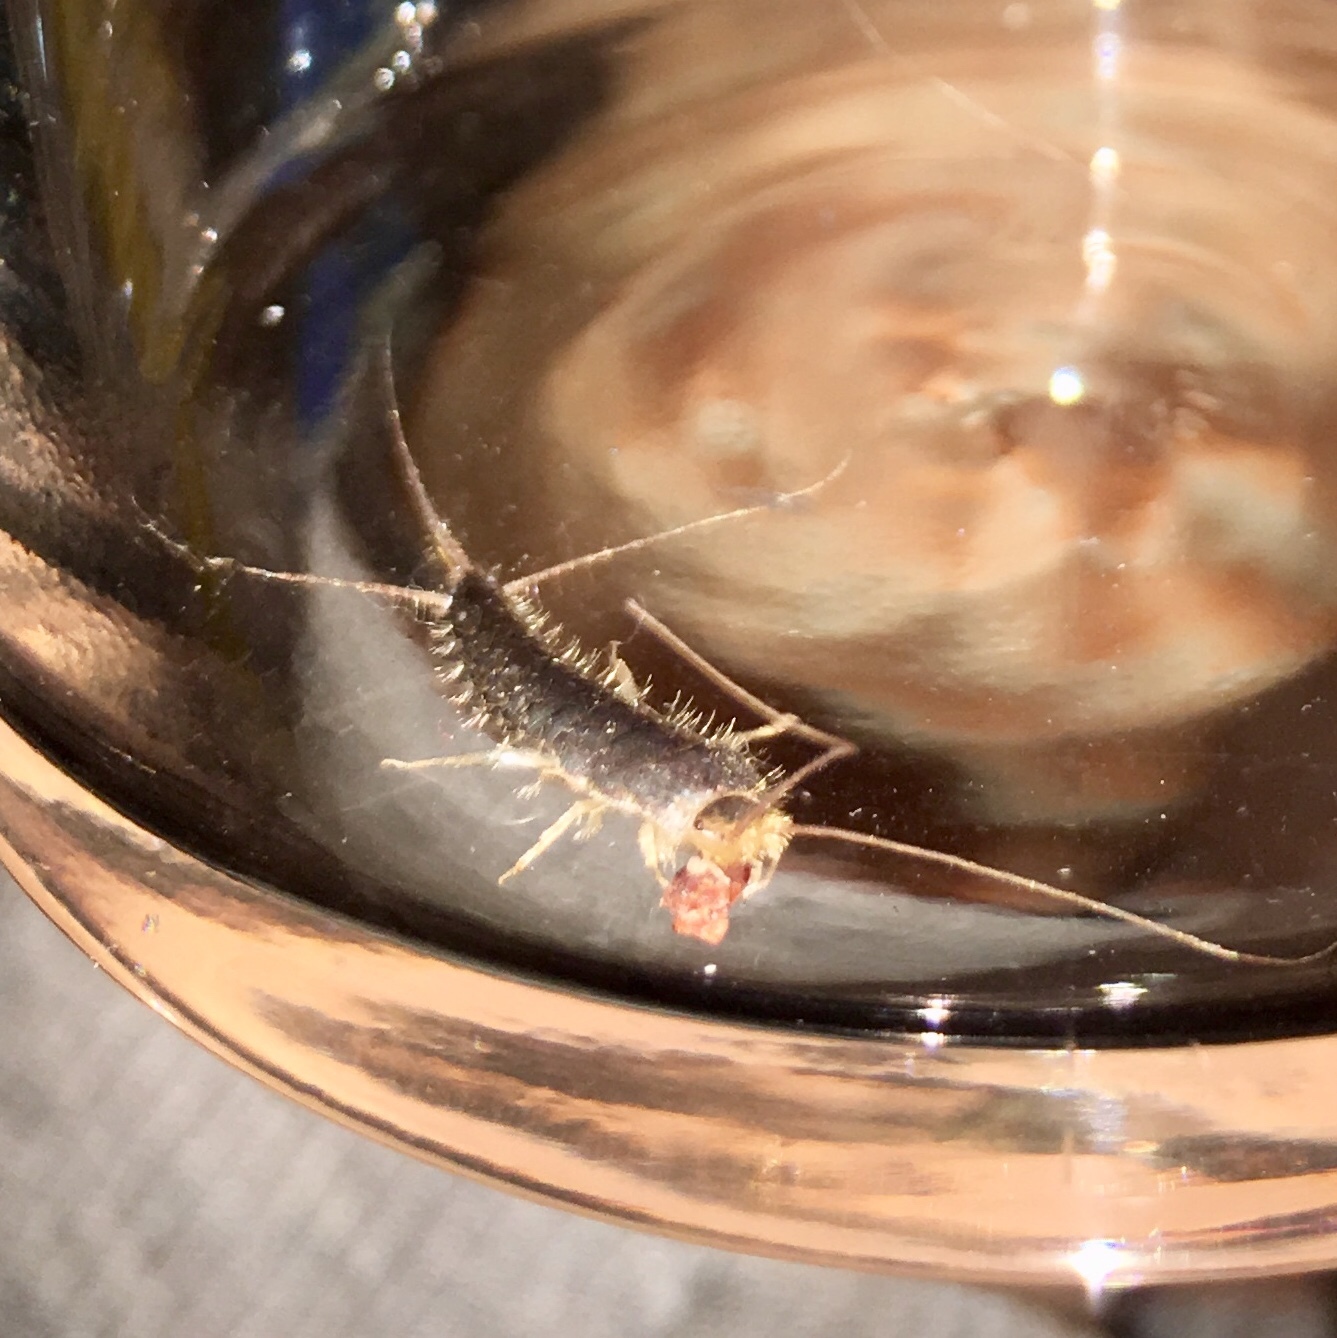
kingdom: Animalia
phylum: Arthropoda
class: Insecta
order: Zygentoma
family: Lepismatidae
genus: Ctenolepisma
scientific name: Ctenolepisma longicaudatum
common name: Silverfish
